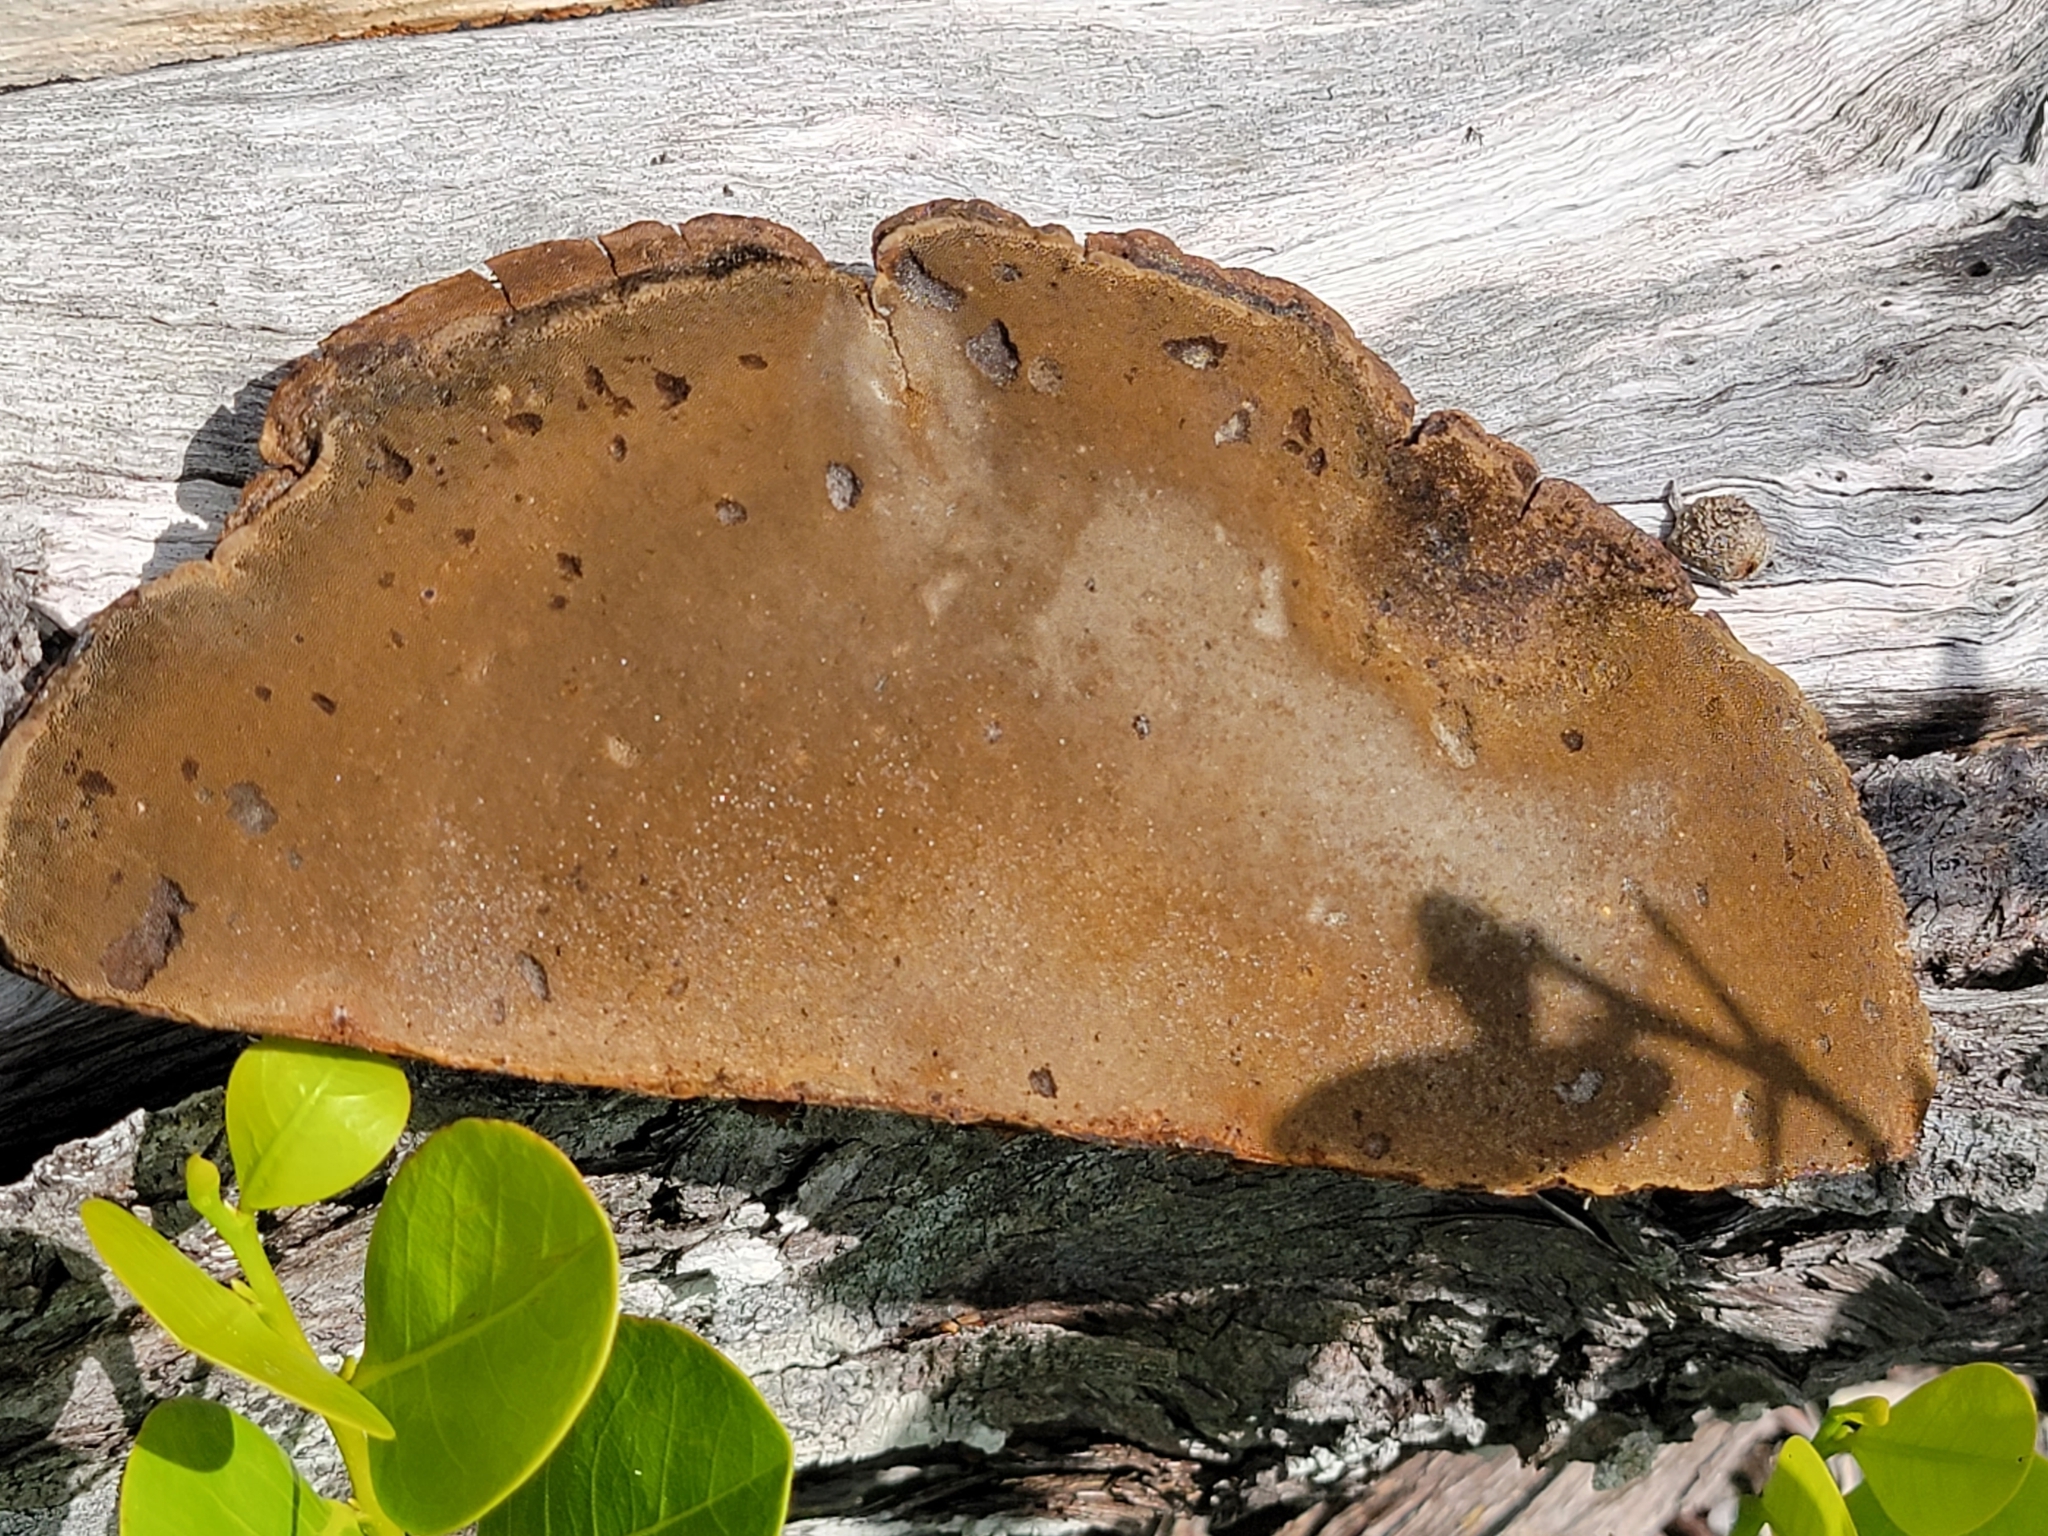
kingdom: Fungi
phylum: Basidiomycota
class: Agaricomycetes
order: Polyporales
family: Cerrenaceae
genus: Cerrena
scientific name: Cerrena hydnoides
